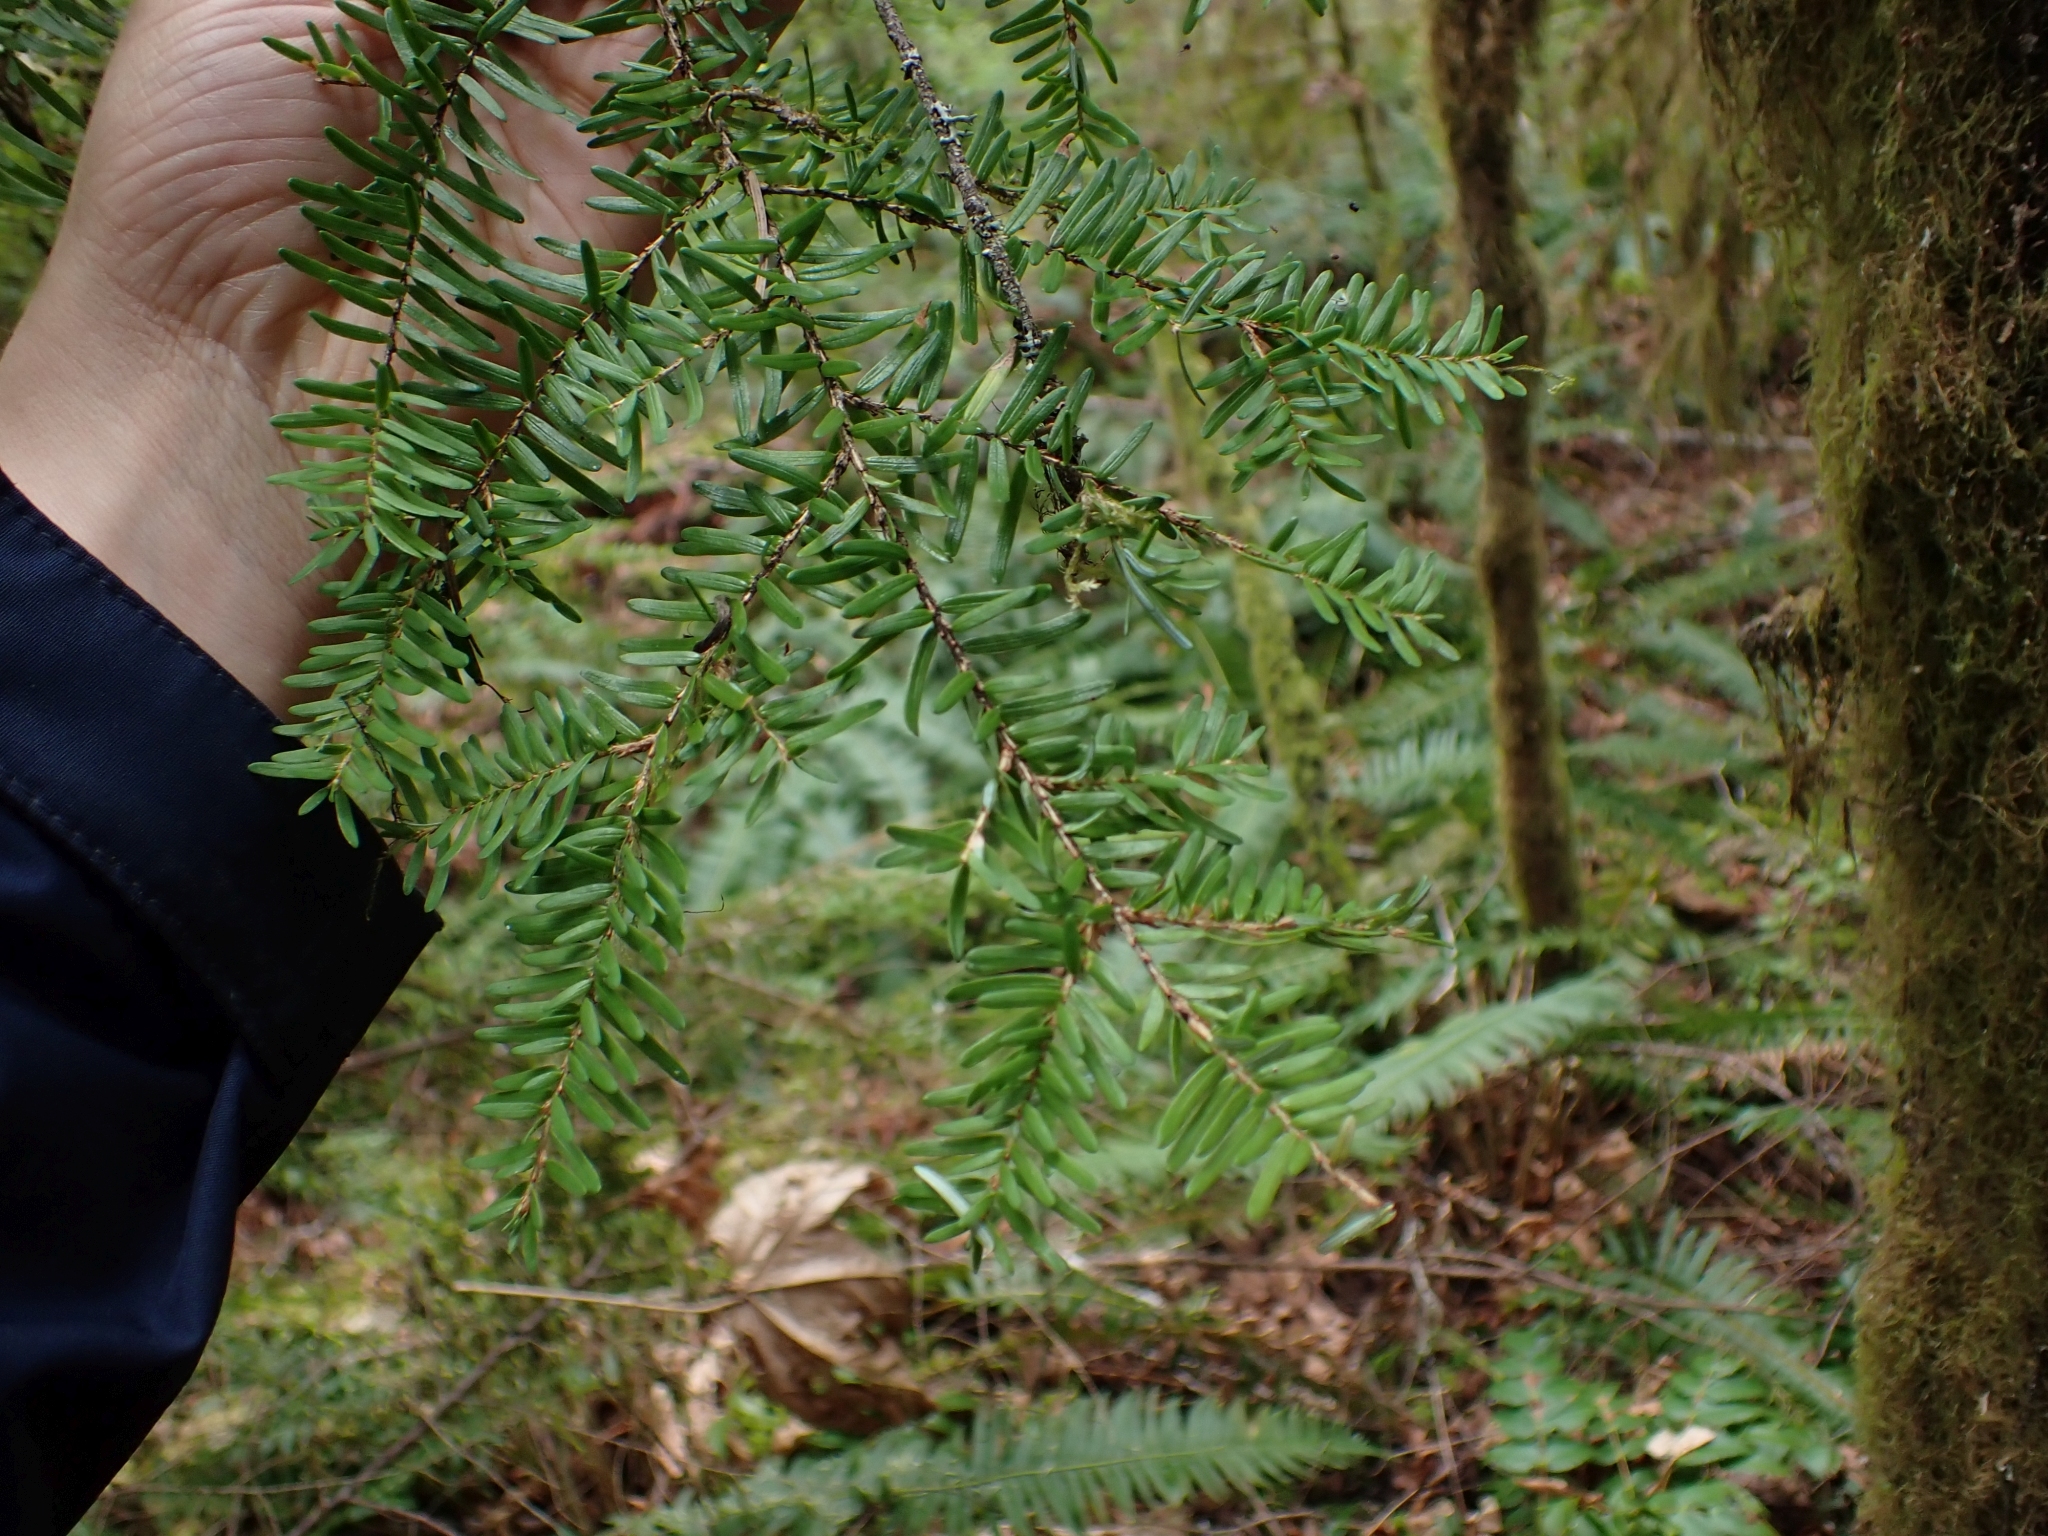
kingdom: Plantae
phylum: Tracheophyta
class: Pinopsida
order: Pinales
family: Pinaceae
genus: Tsuga
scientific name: Tsuga heterophylla
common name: Western hemlock
